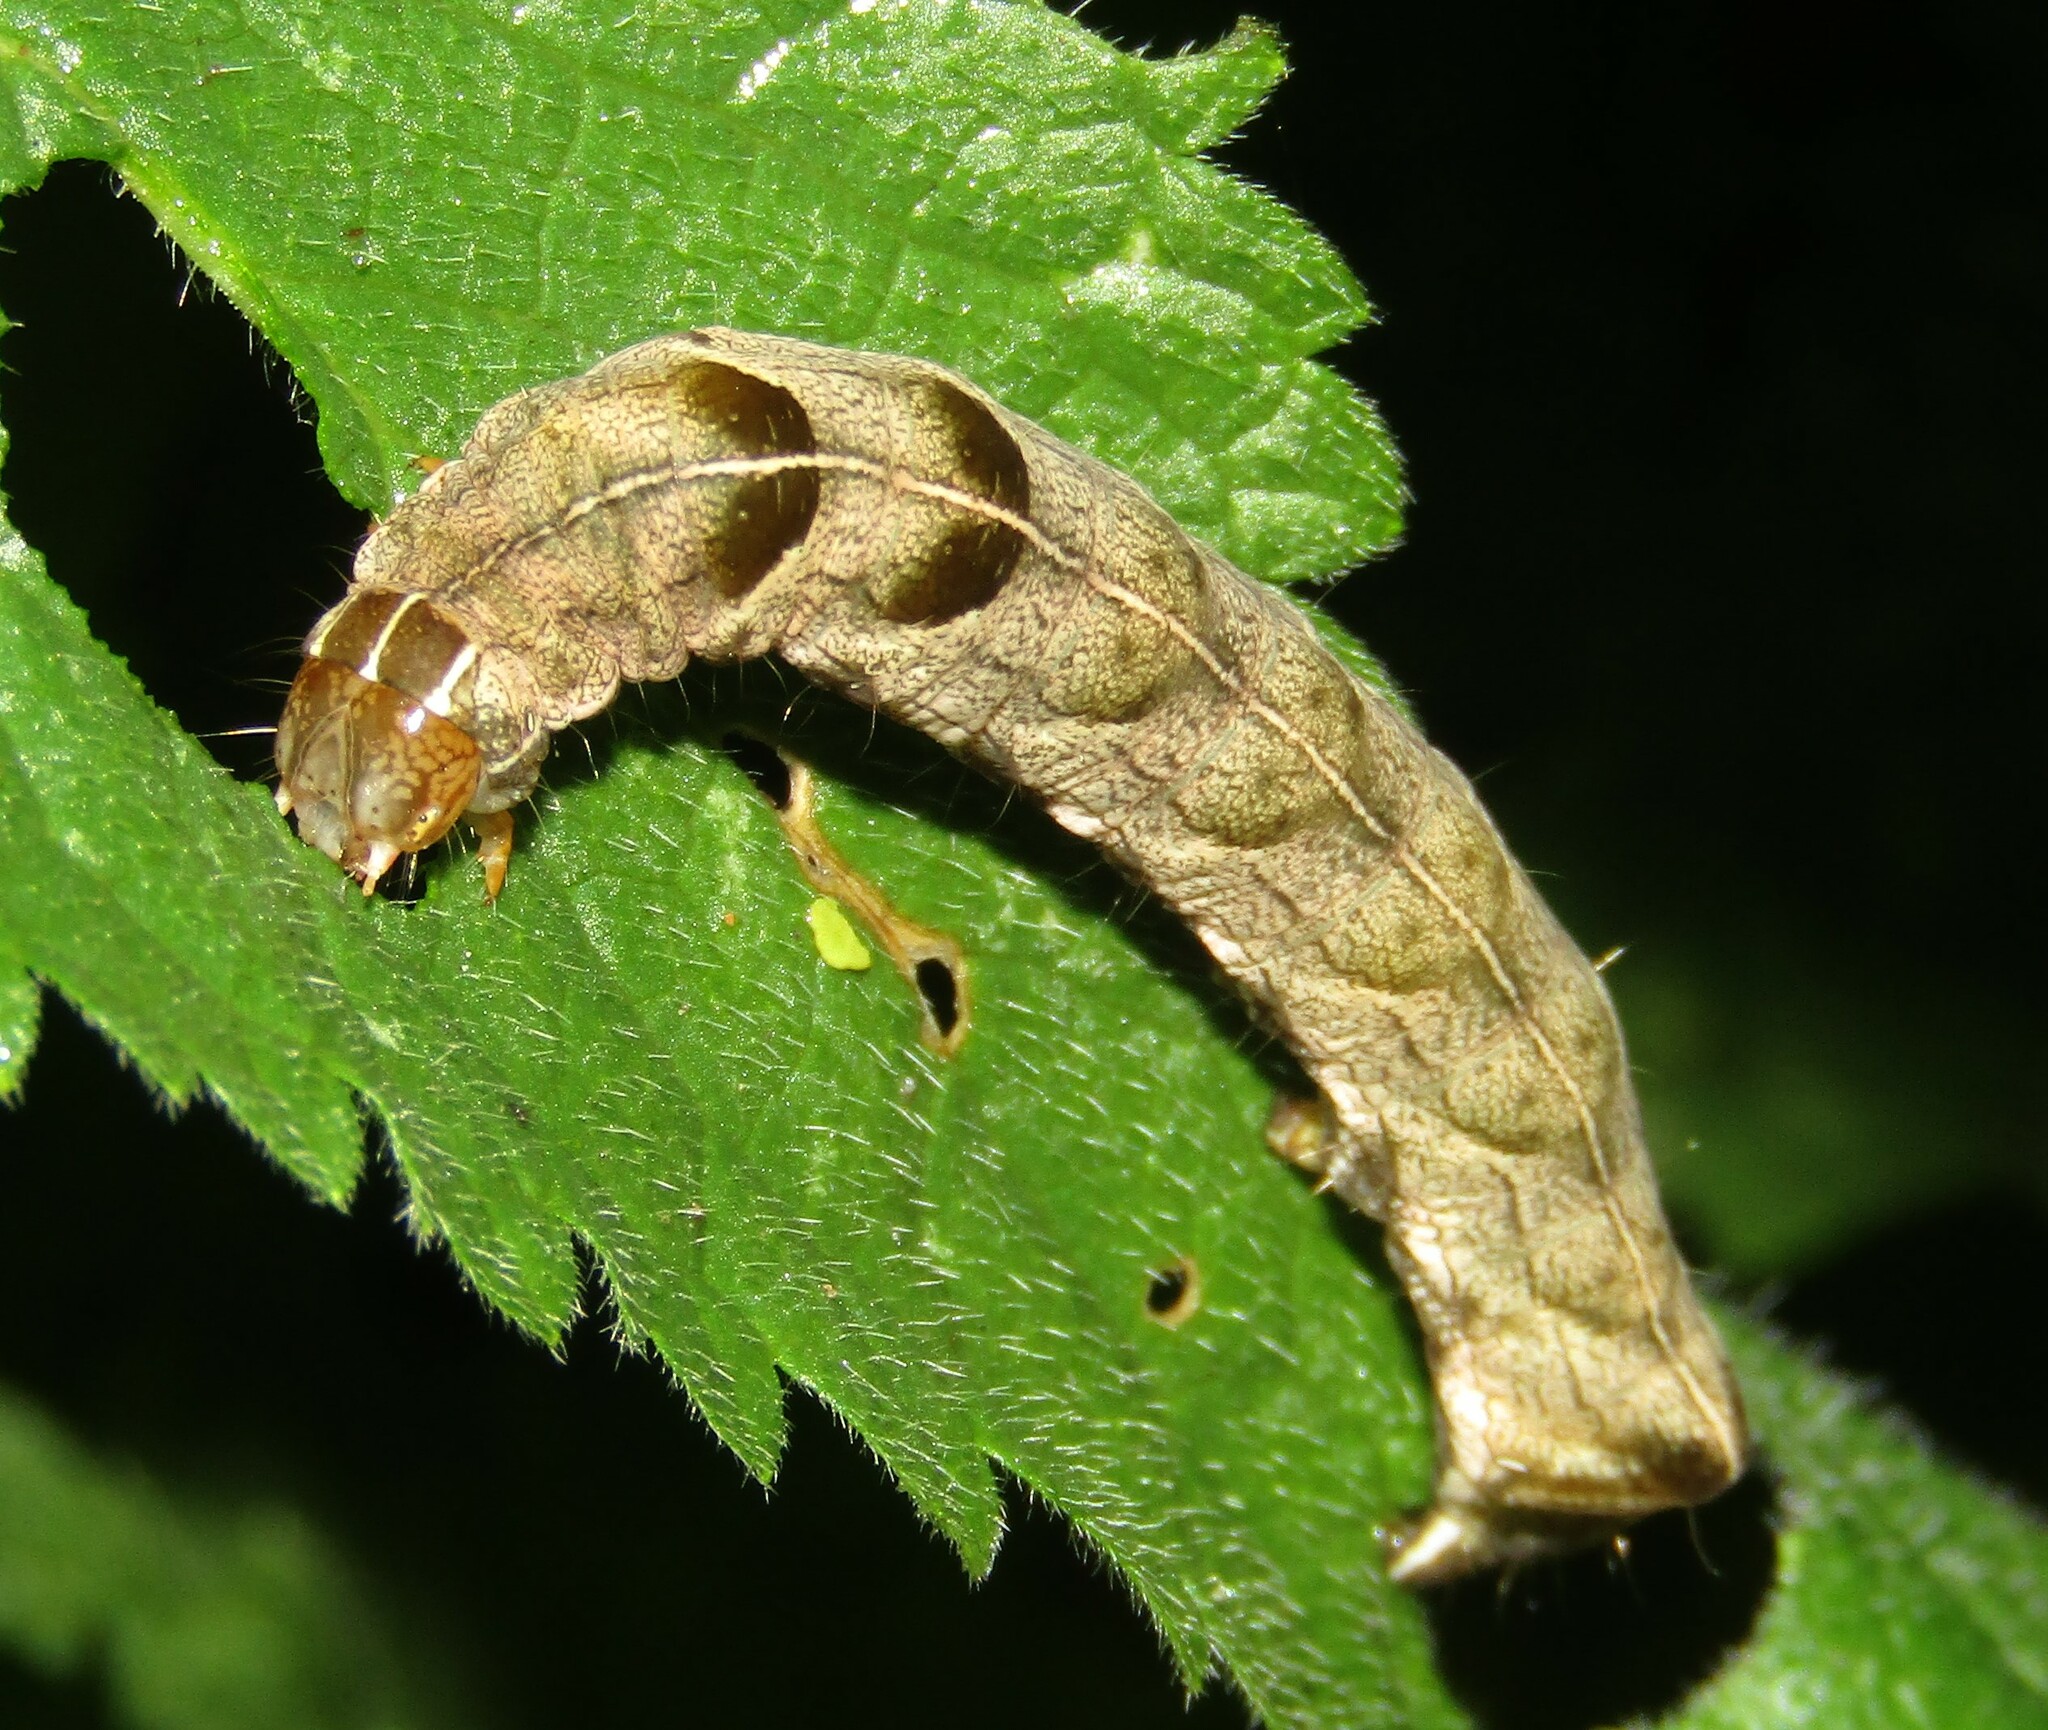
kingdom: Animalia
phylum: Arthropoda
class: Insecta
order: Lepidoptera
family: Noctuidae
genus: Melanchra
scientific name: Melanchra persicariae
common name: Dot moth
